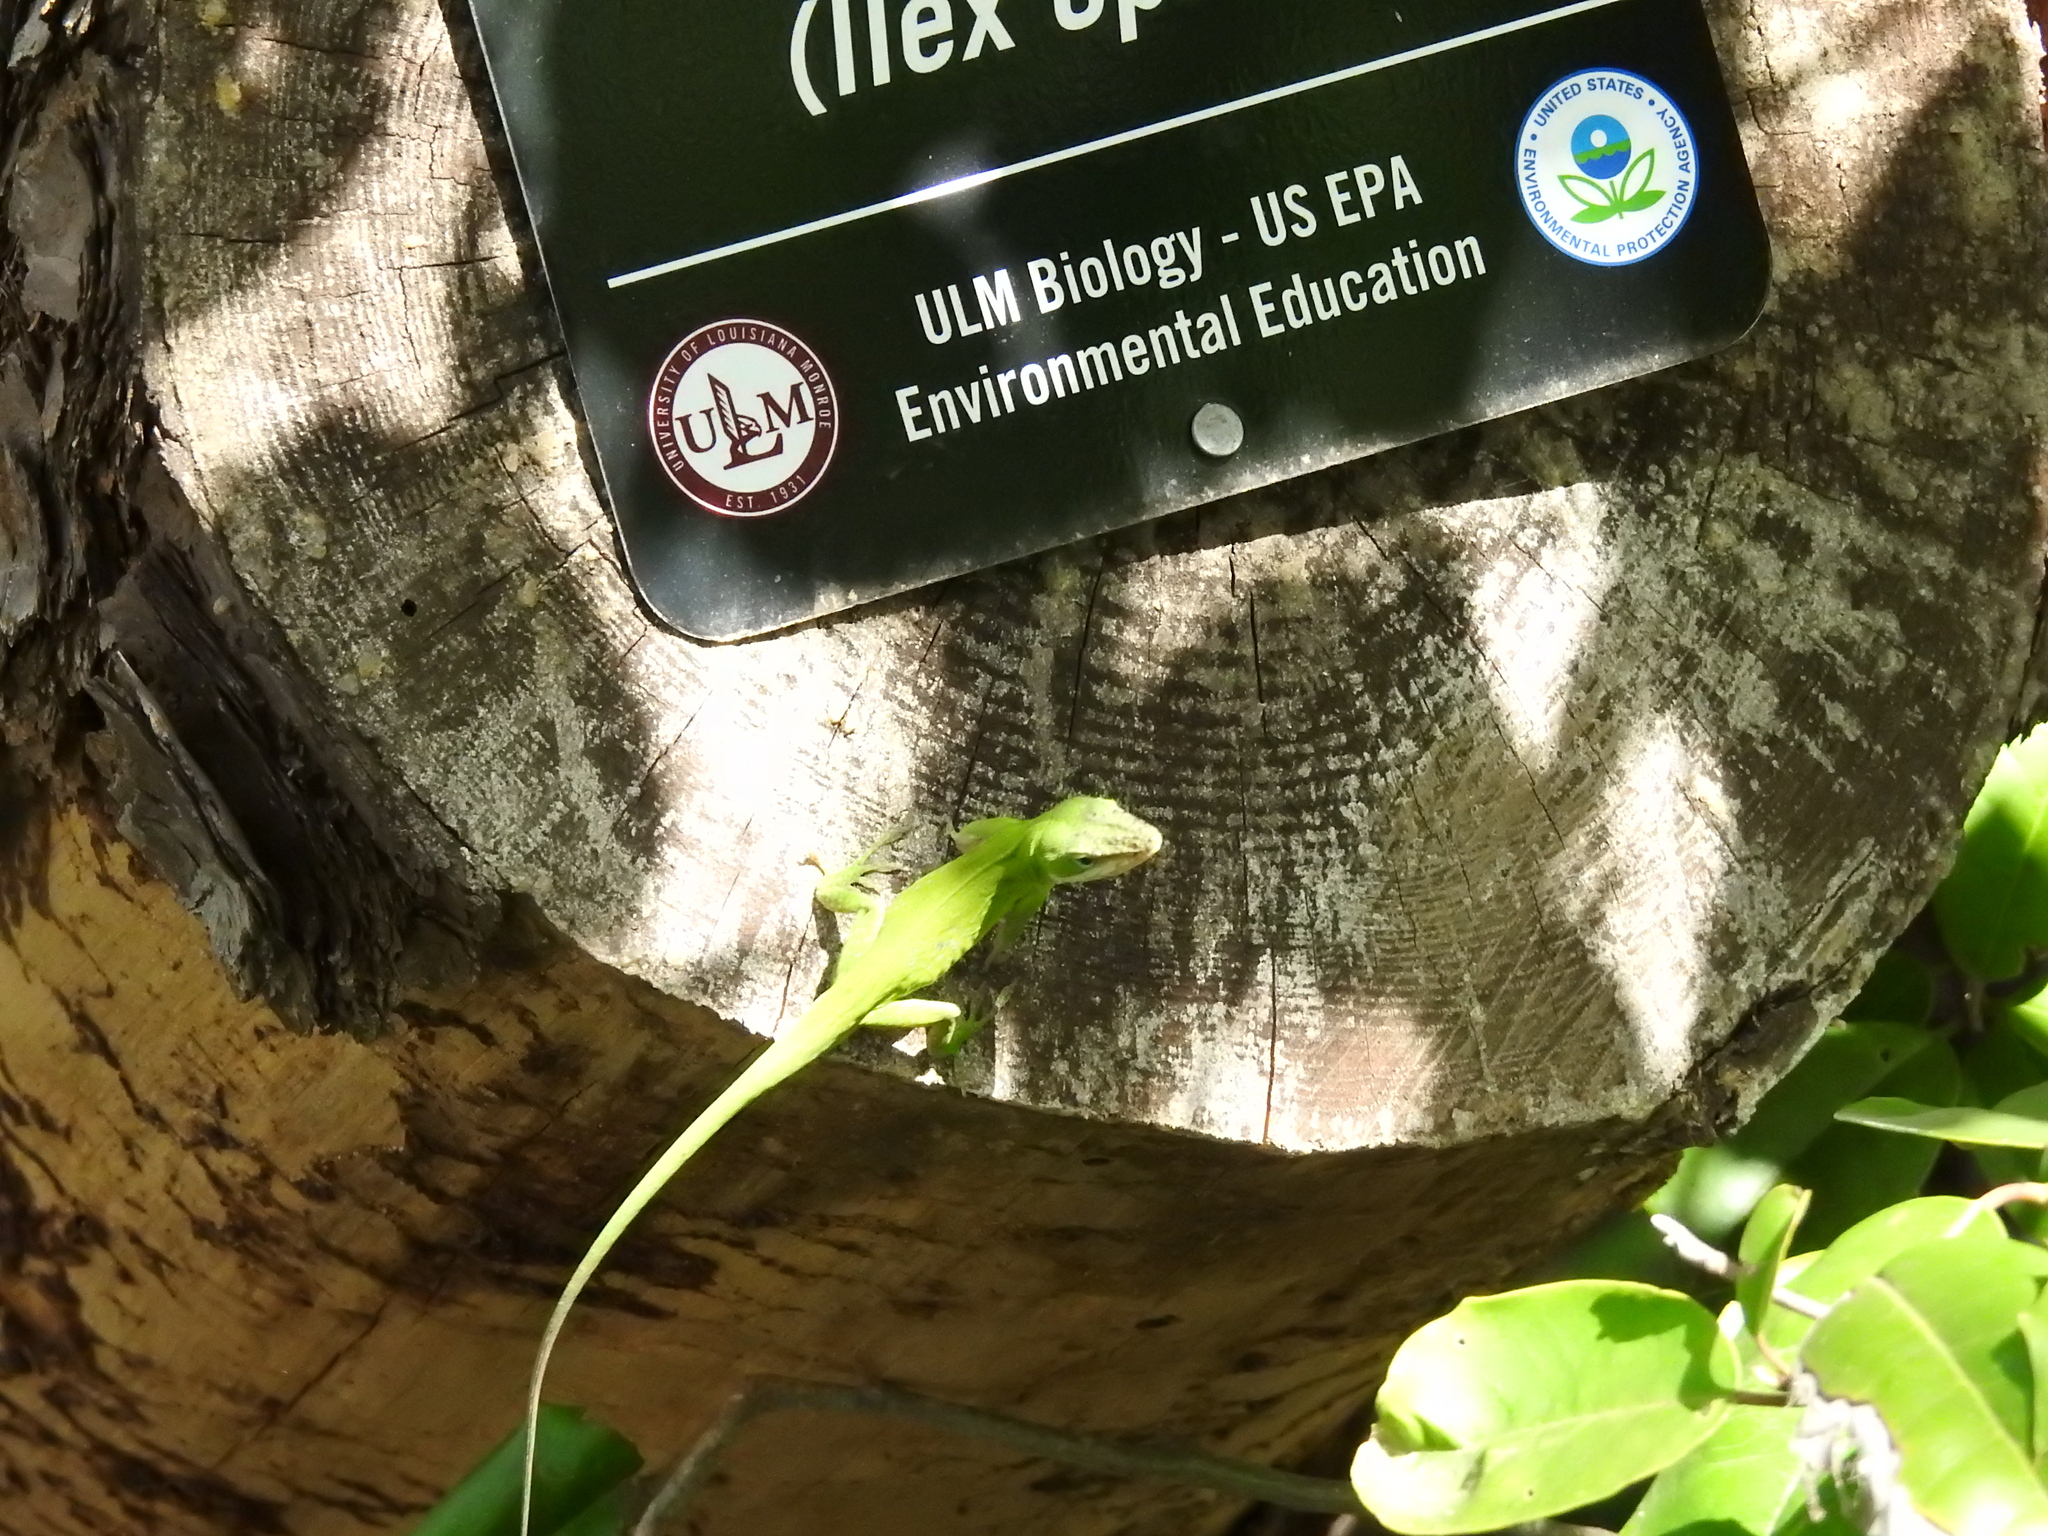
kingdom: Animalia
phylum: Chordata
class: Squamata
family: Dactyloidae
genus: Anolis
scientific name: Anolis carolinensis
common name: Green anole
